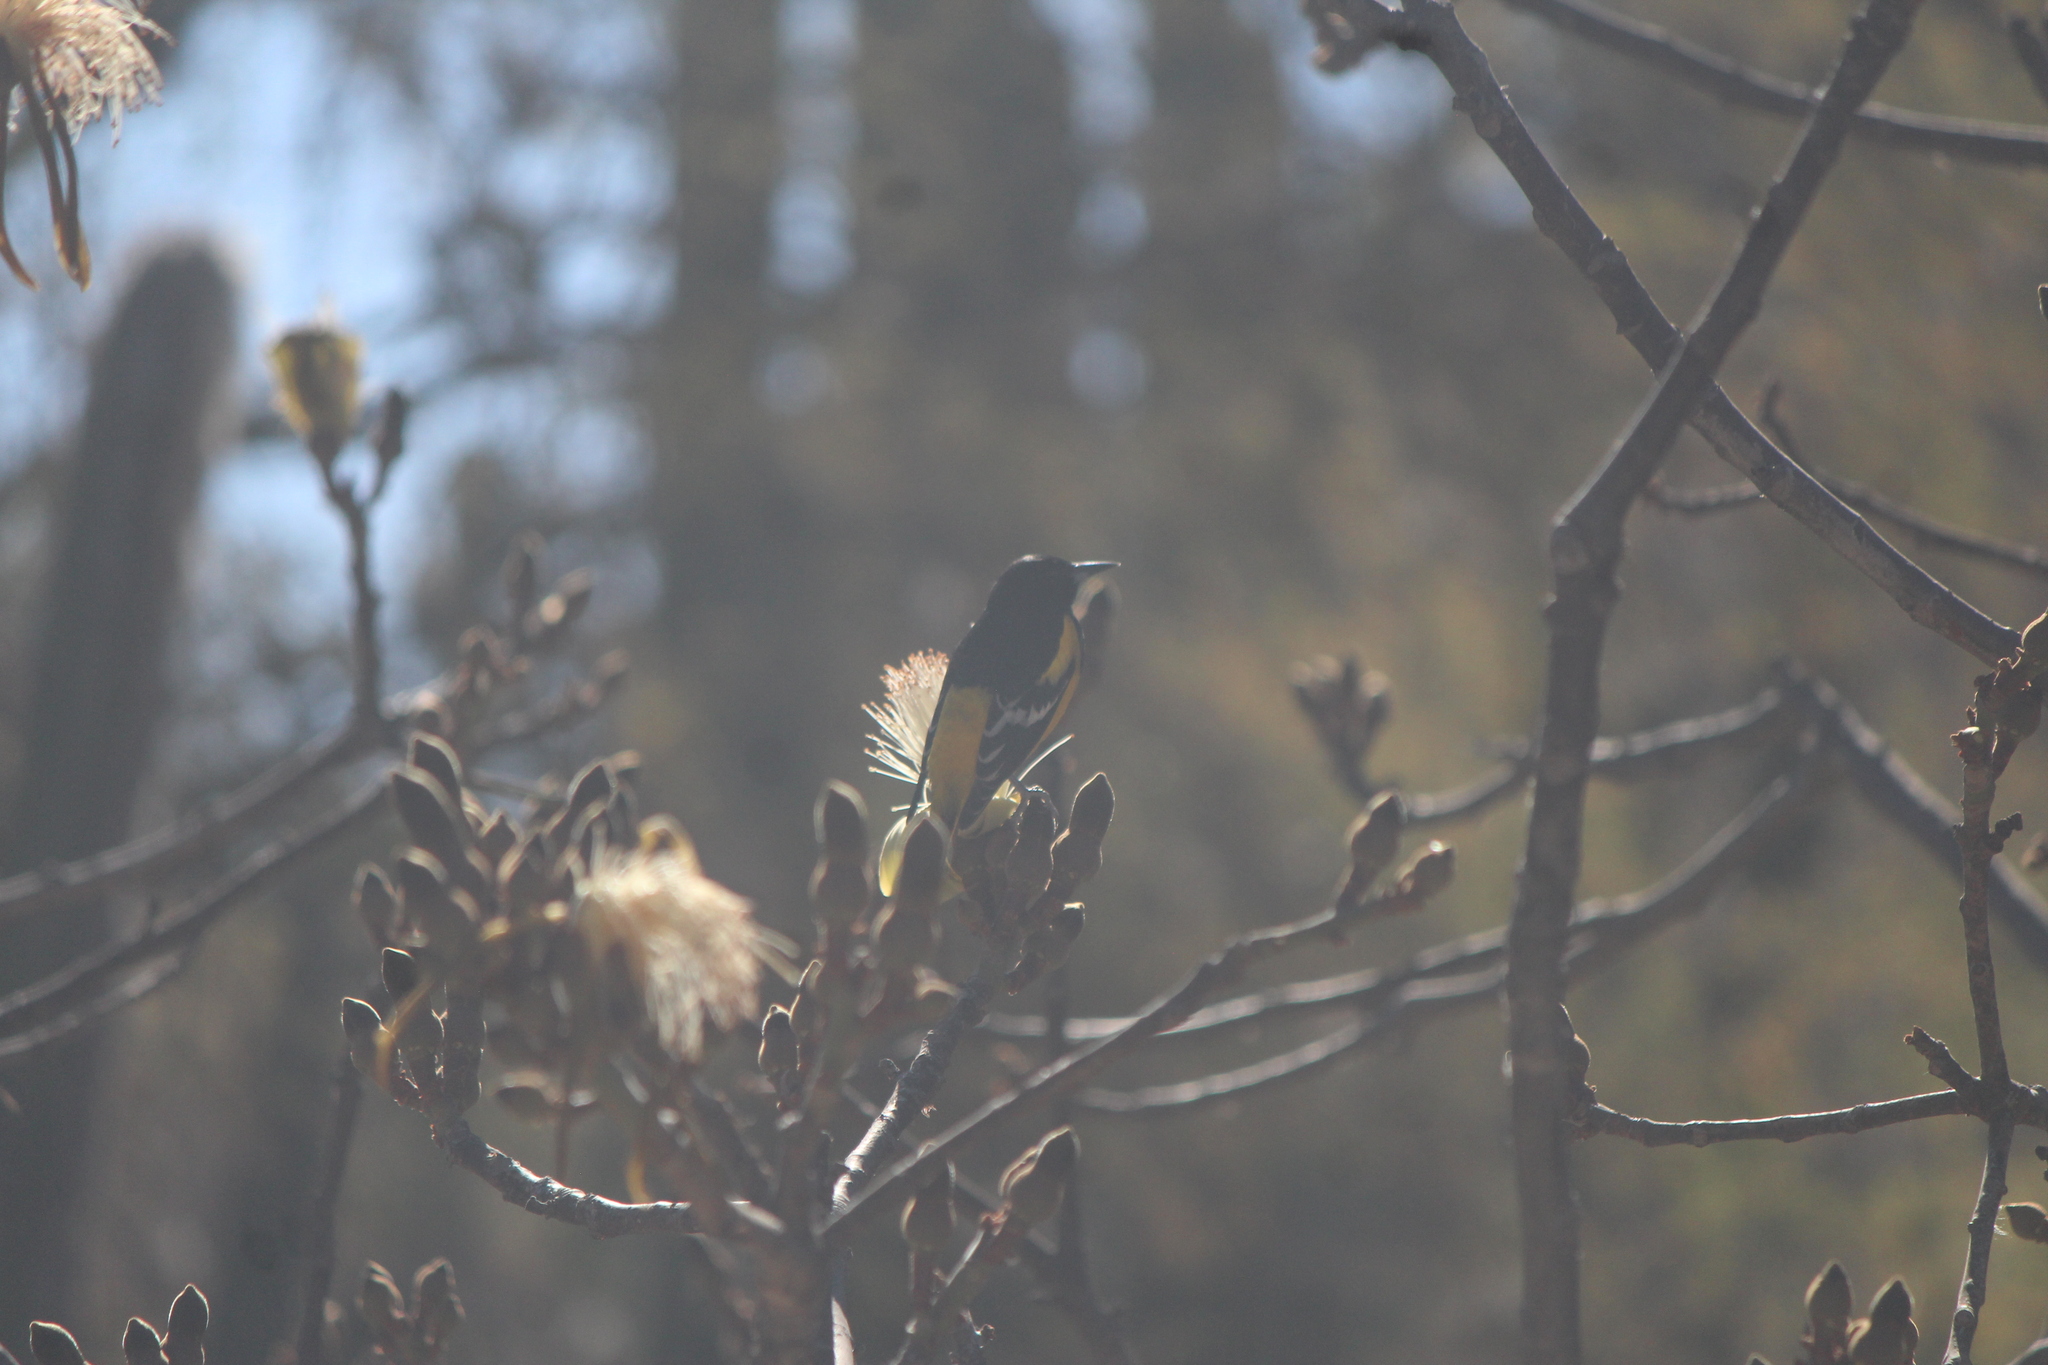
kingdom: Animalia
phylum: Chordata
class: Aves
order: Passeriformes
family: Icteridae
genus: Icterus
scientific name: Icterus parisorum
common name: Scott's oriole
